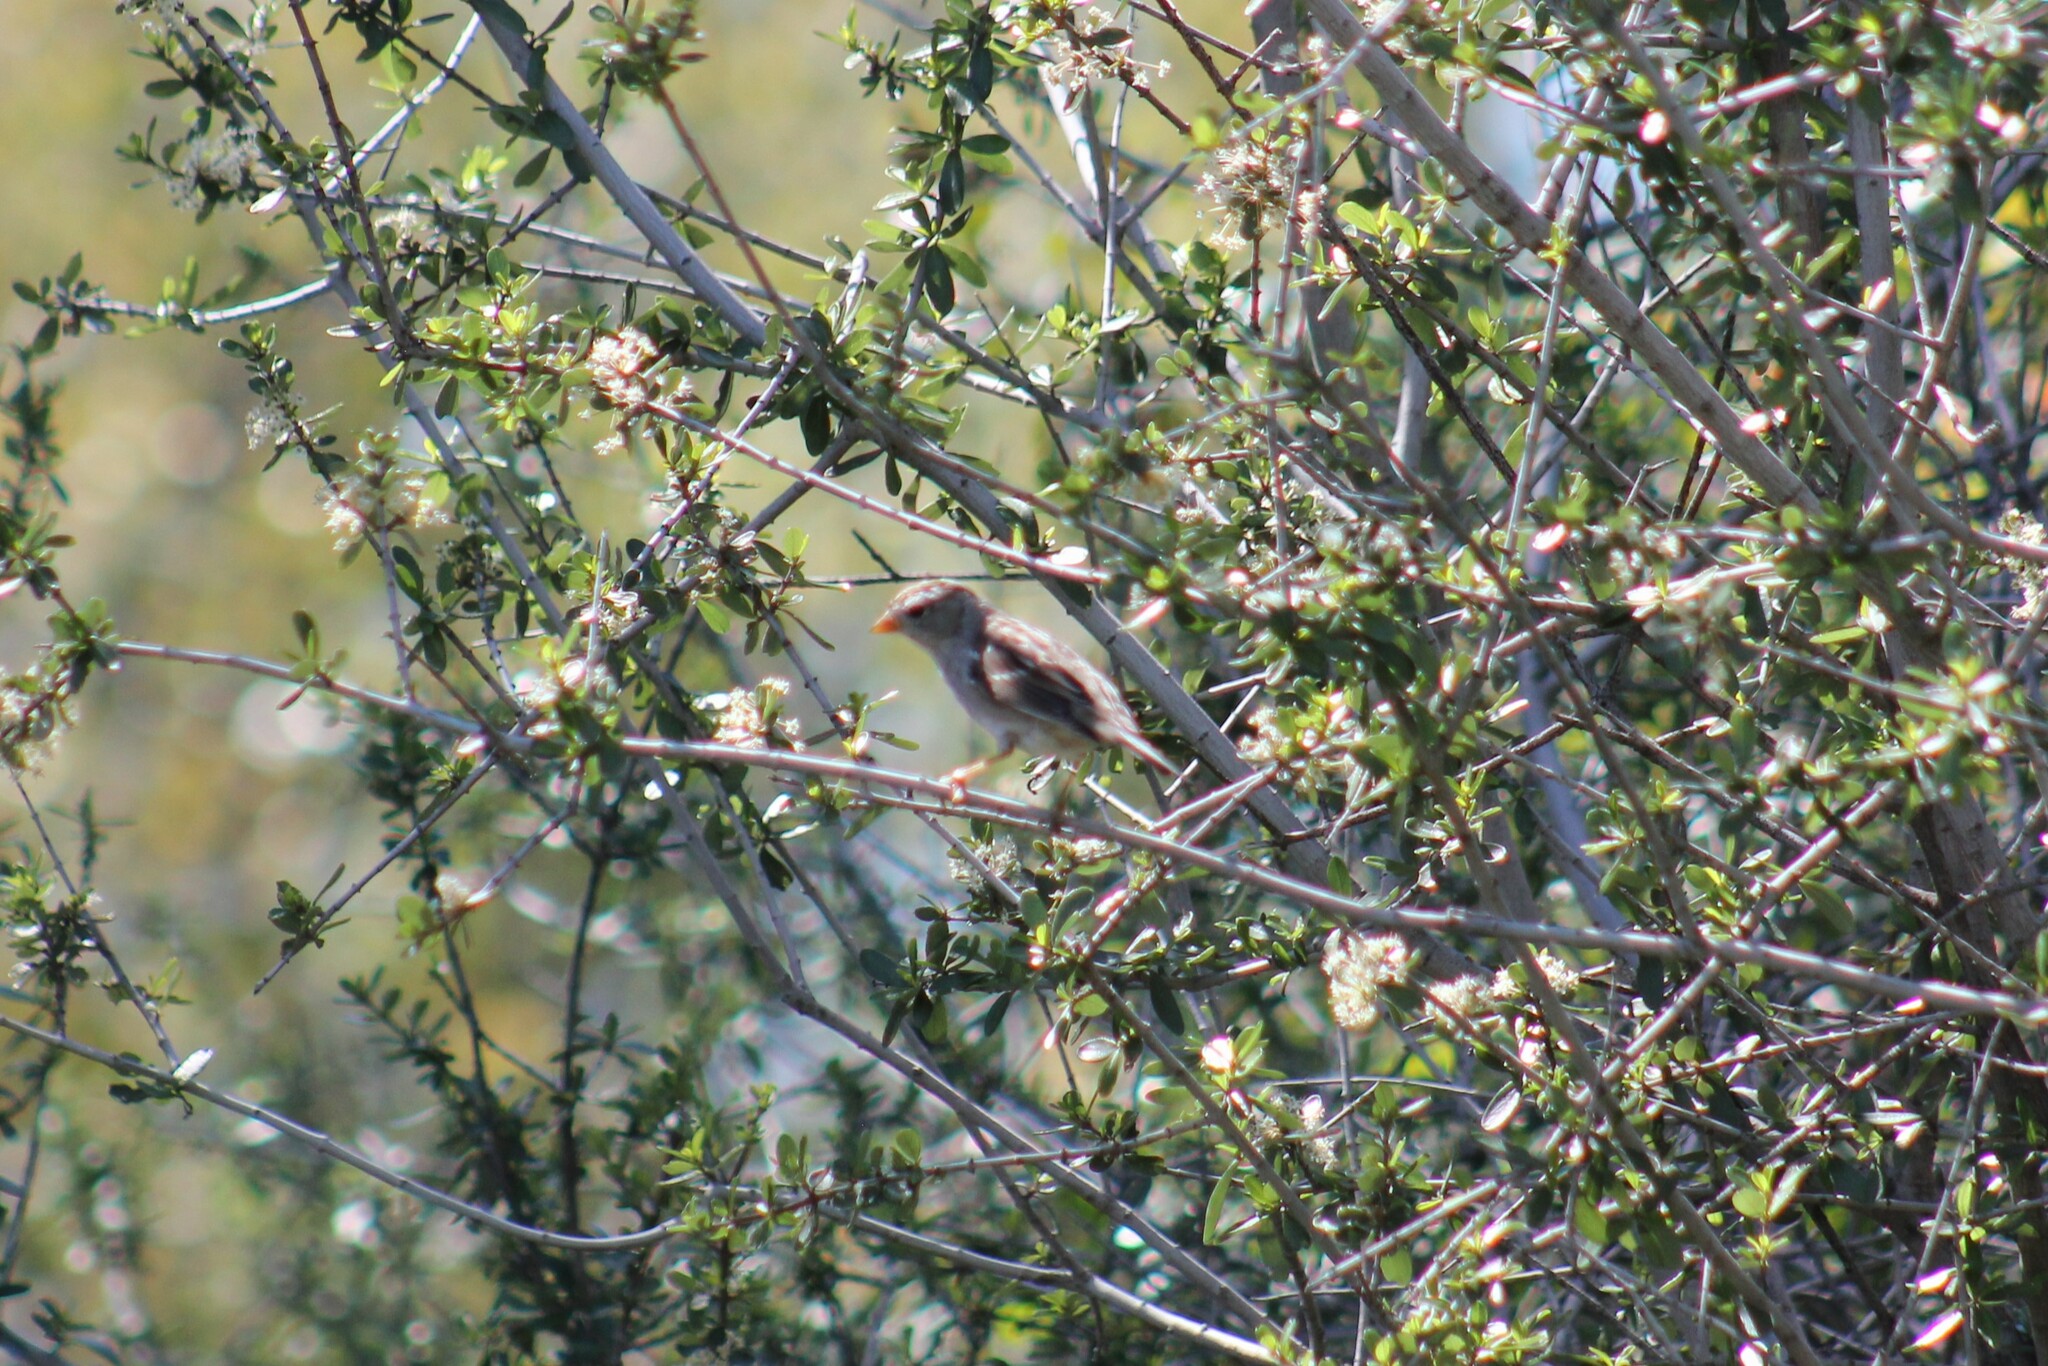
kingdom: Animalia
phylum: Chordata
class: Aves
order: Passeriformes
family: Passerellidae
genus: Zonotrichia
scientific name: Zonotrichia leucophrys
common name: White-crowned sparrow
